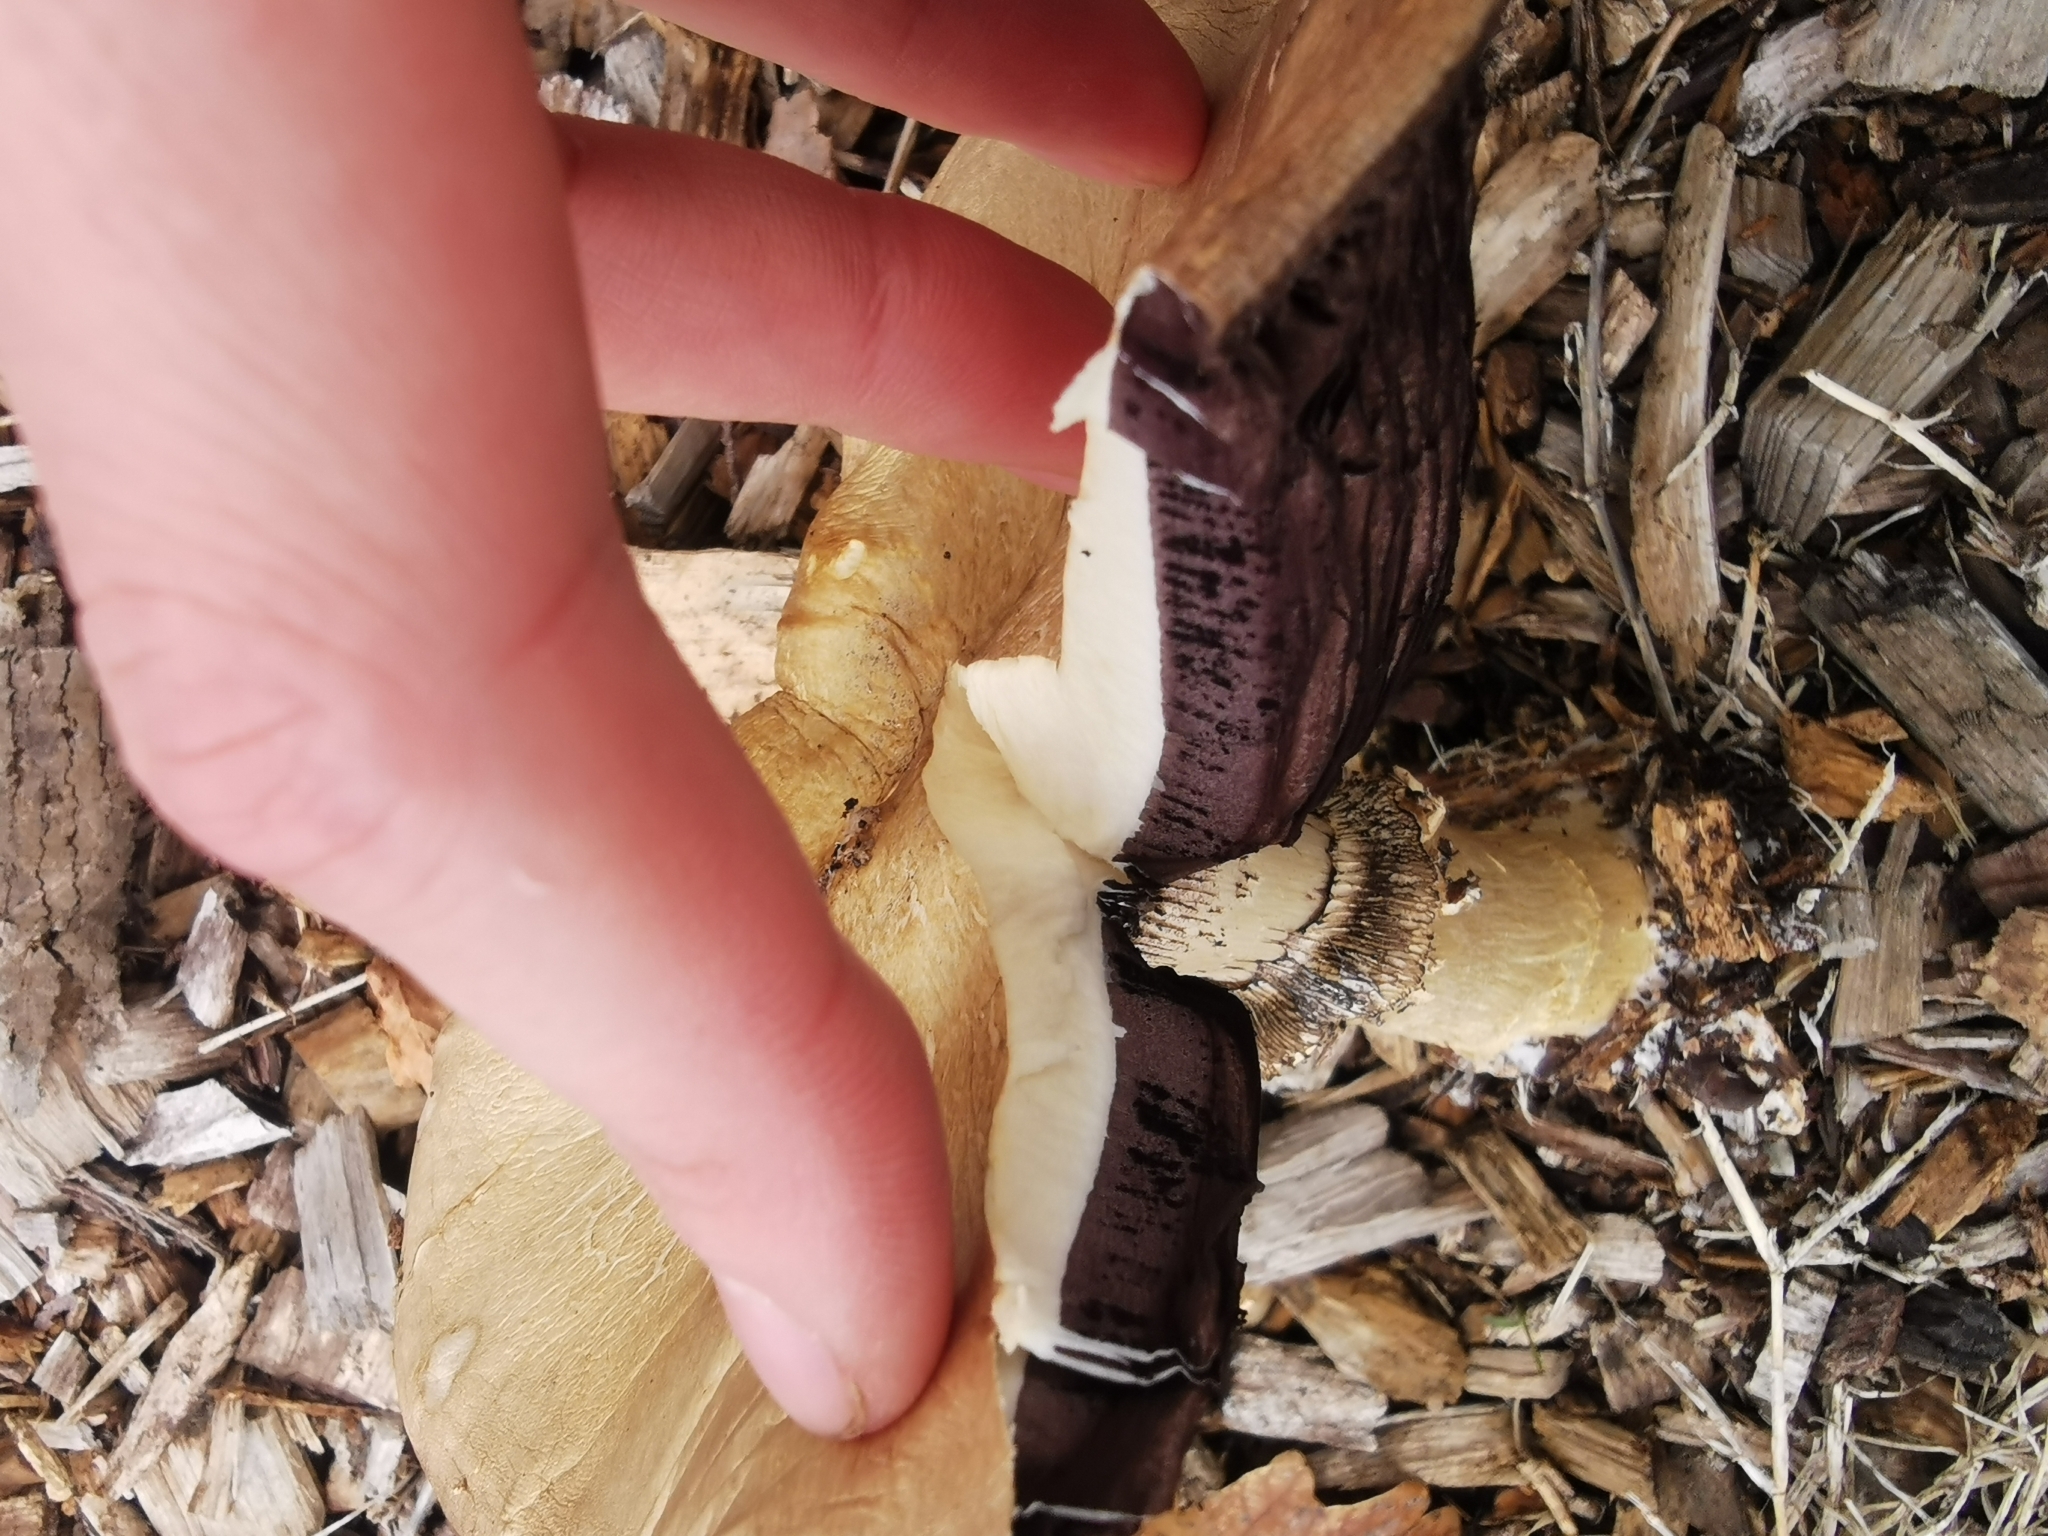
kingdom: Fungi
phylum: Basidiomycota
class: Agaricomycetes
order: Agaricales
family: Strophariaceae
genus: Stropharia
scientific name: Stropharia rugosoannulata
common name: Wine roundhead
